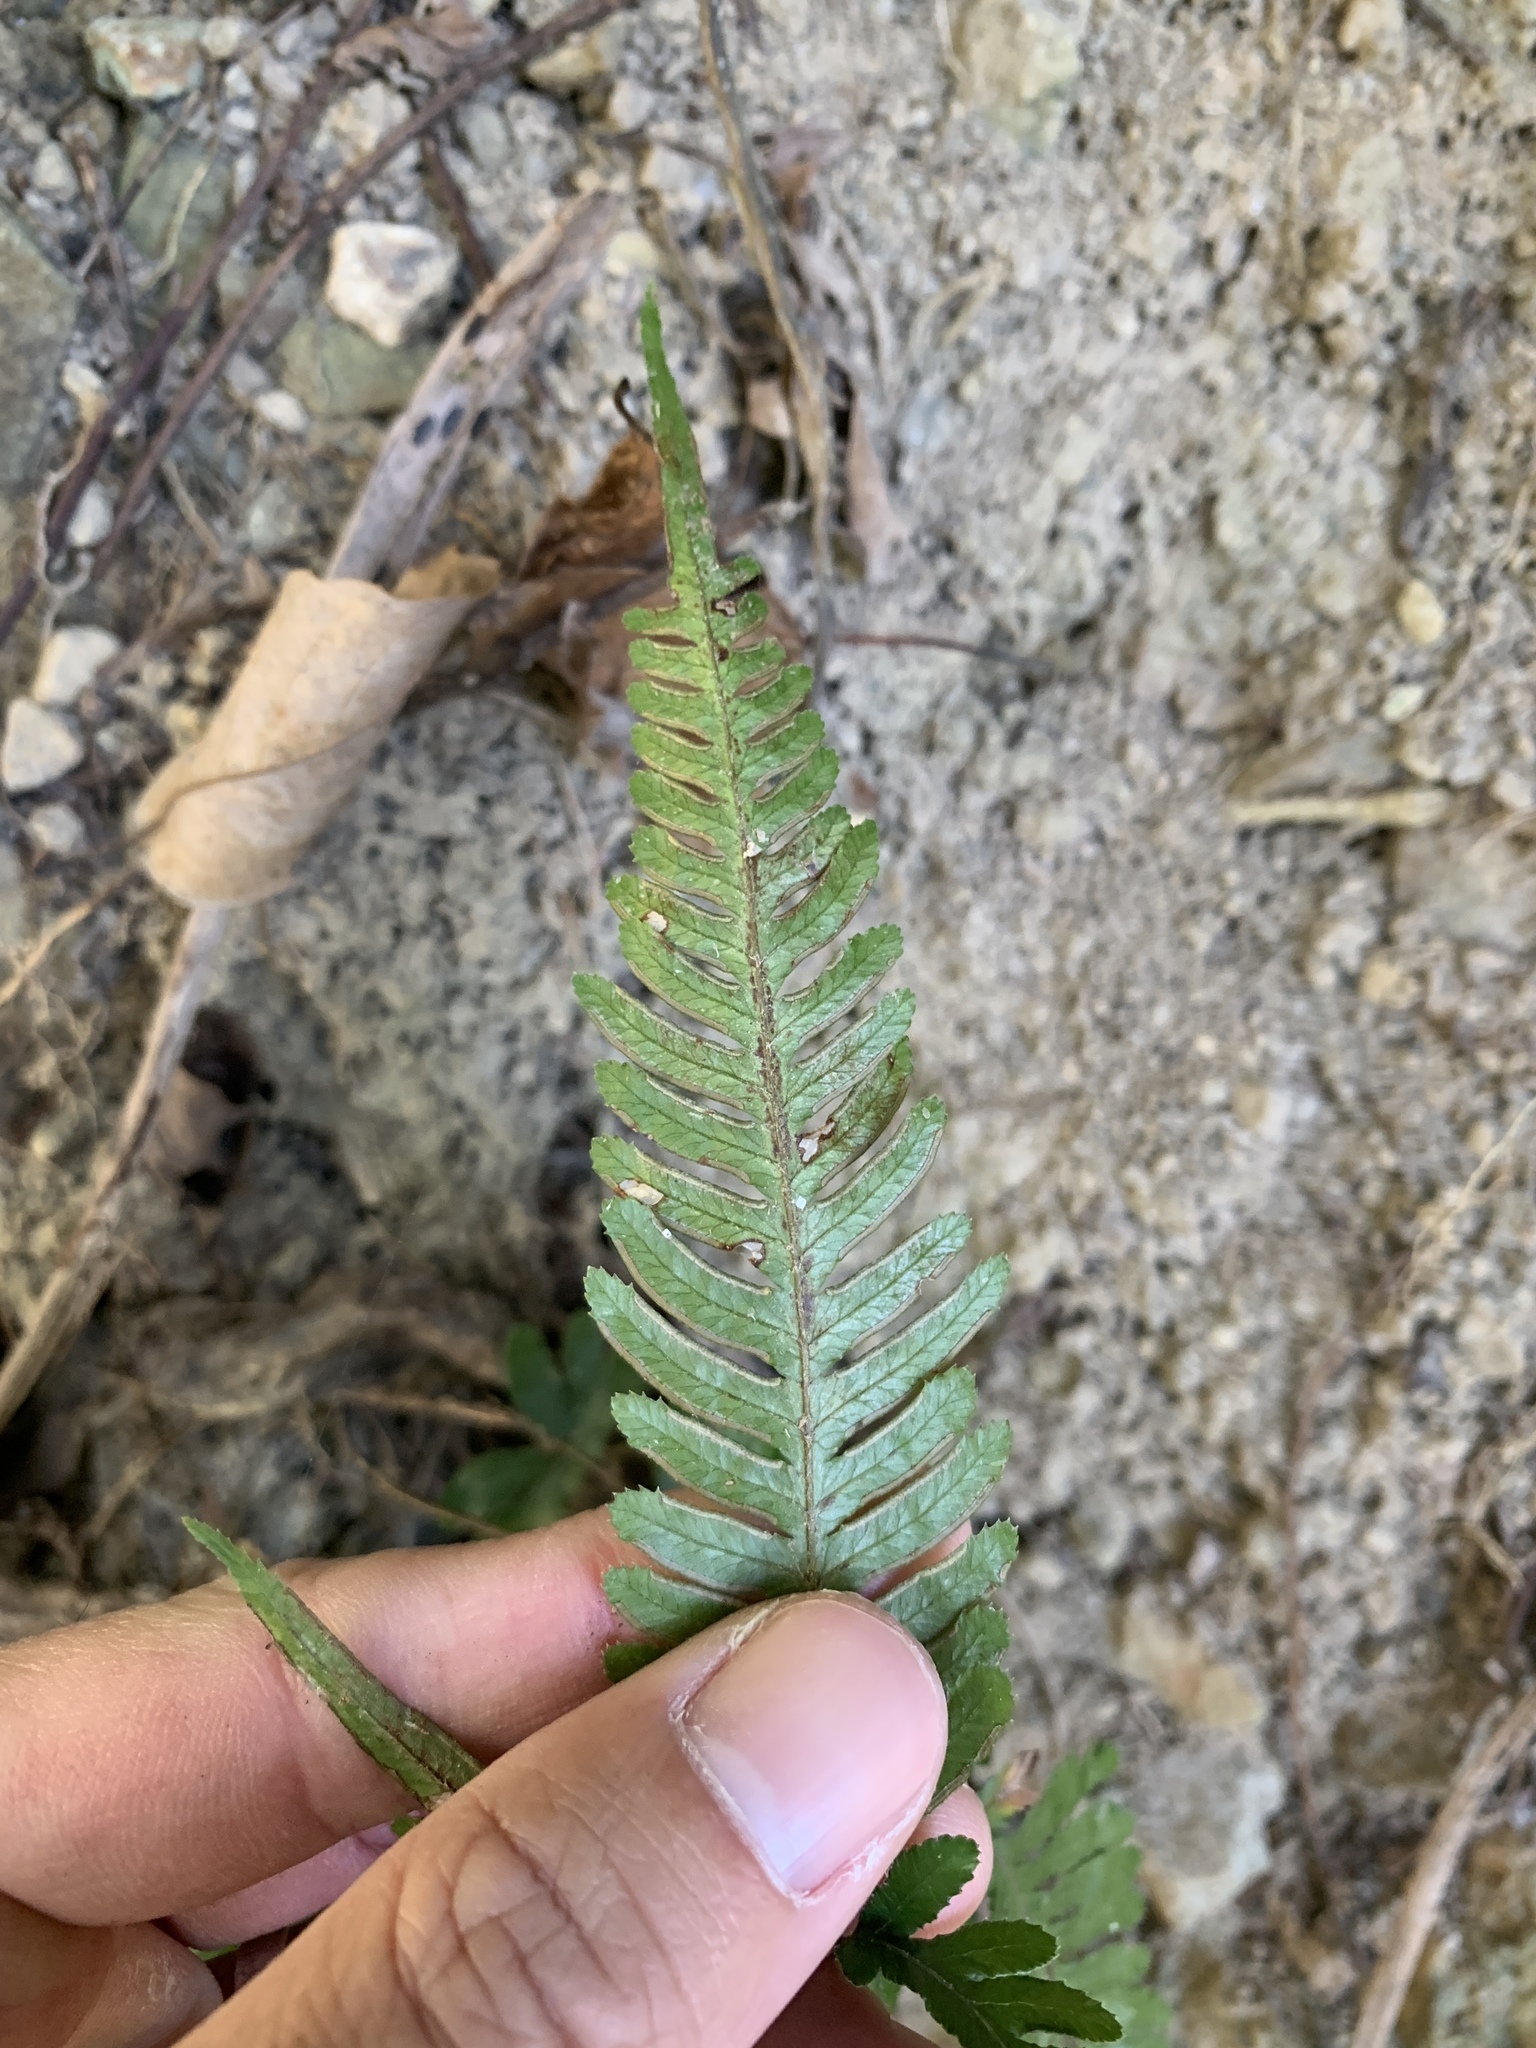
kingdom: Plantae
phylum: Tracheophyta
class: Polypodiopsida
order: Polypodiales
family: Pteridaceae
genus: Pteris
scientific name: Pteris dispar
